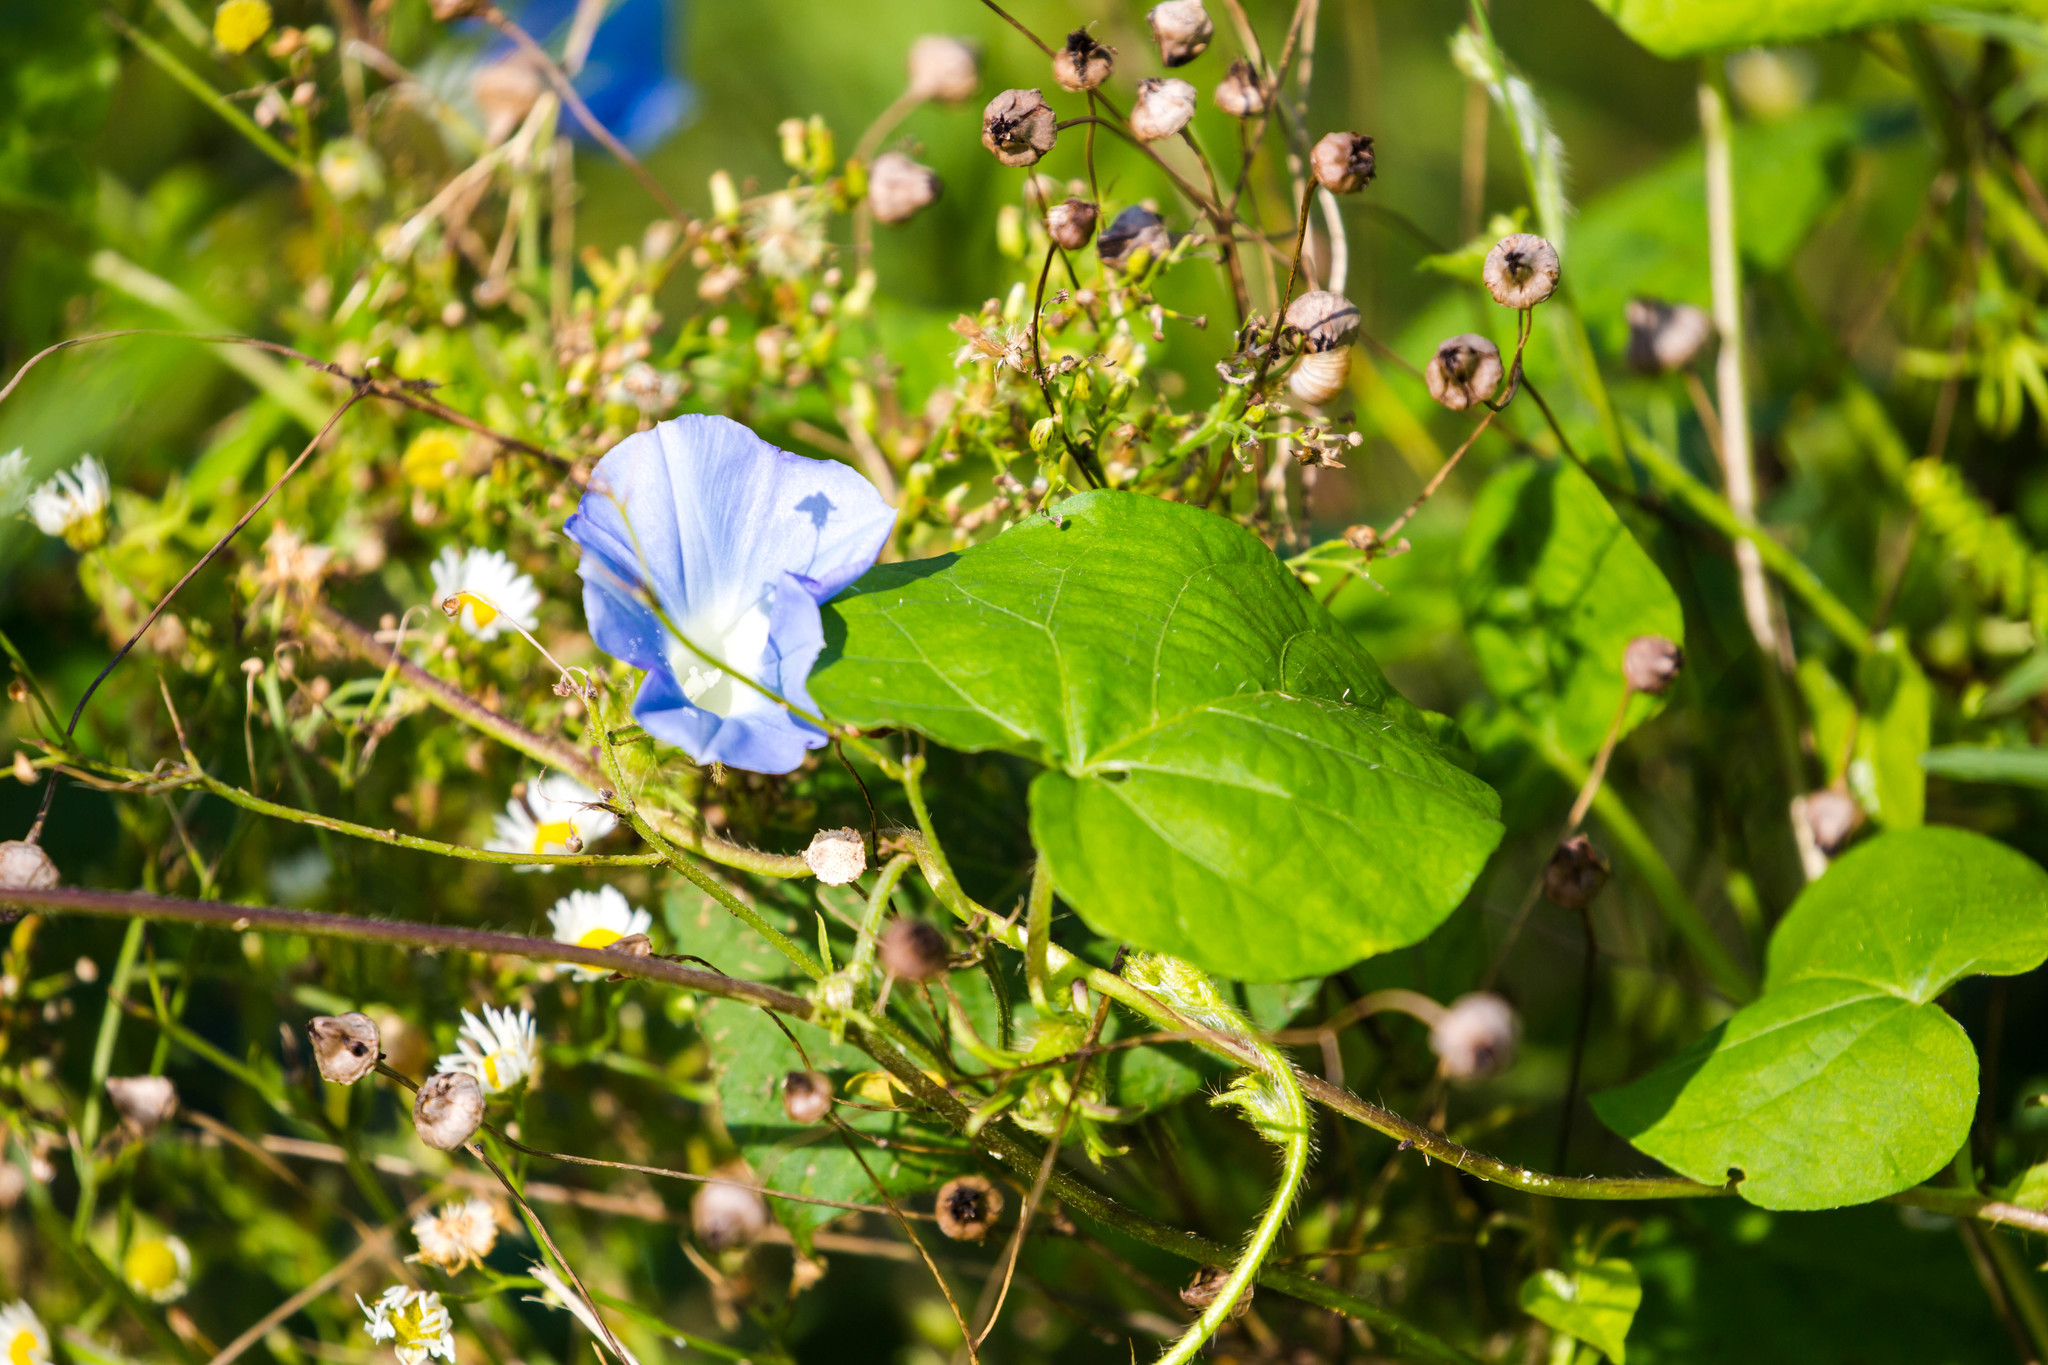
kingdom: Plantae
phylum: Tracheophyta
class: Magnoliopsida
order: Solanales
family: Convolvulaceae
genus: Ipomoea
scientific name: Ipomoea hederacea
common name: Ivy-leaved morning-glory
